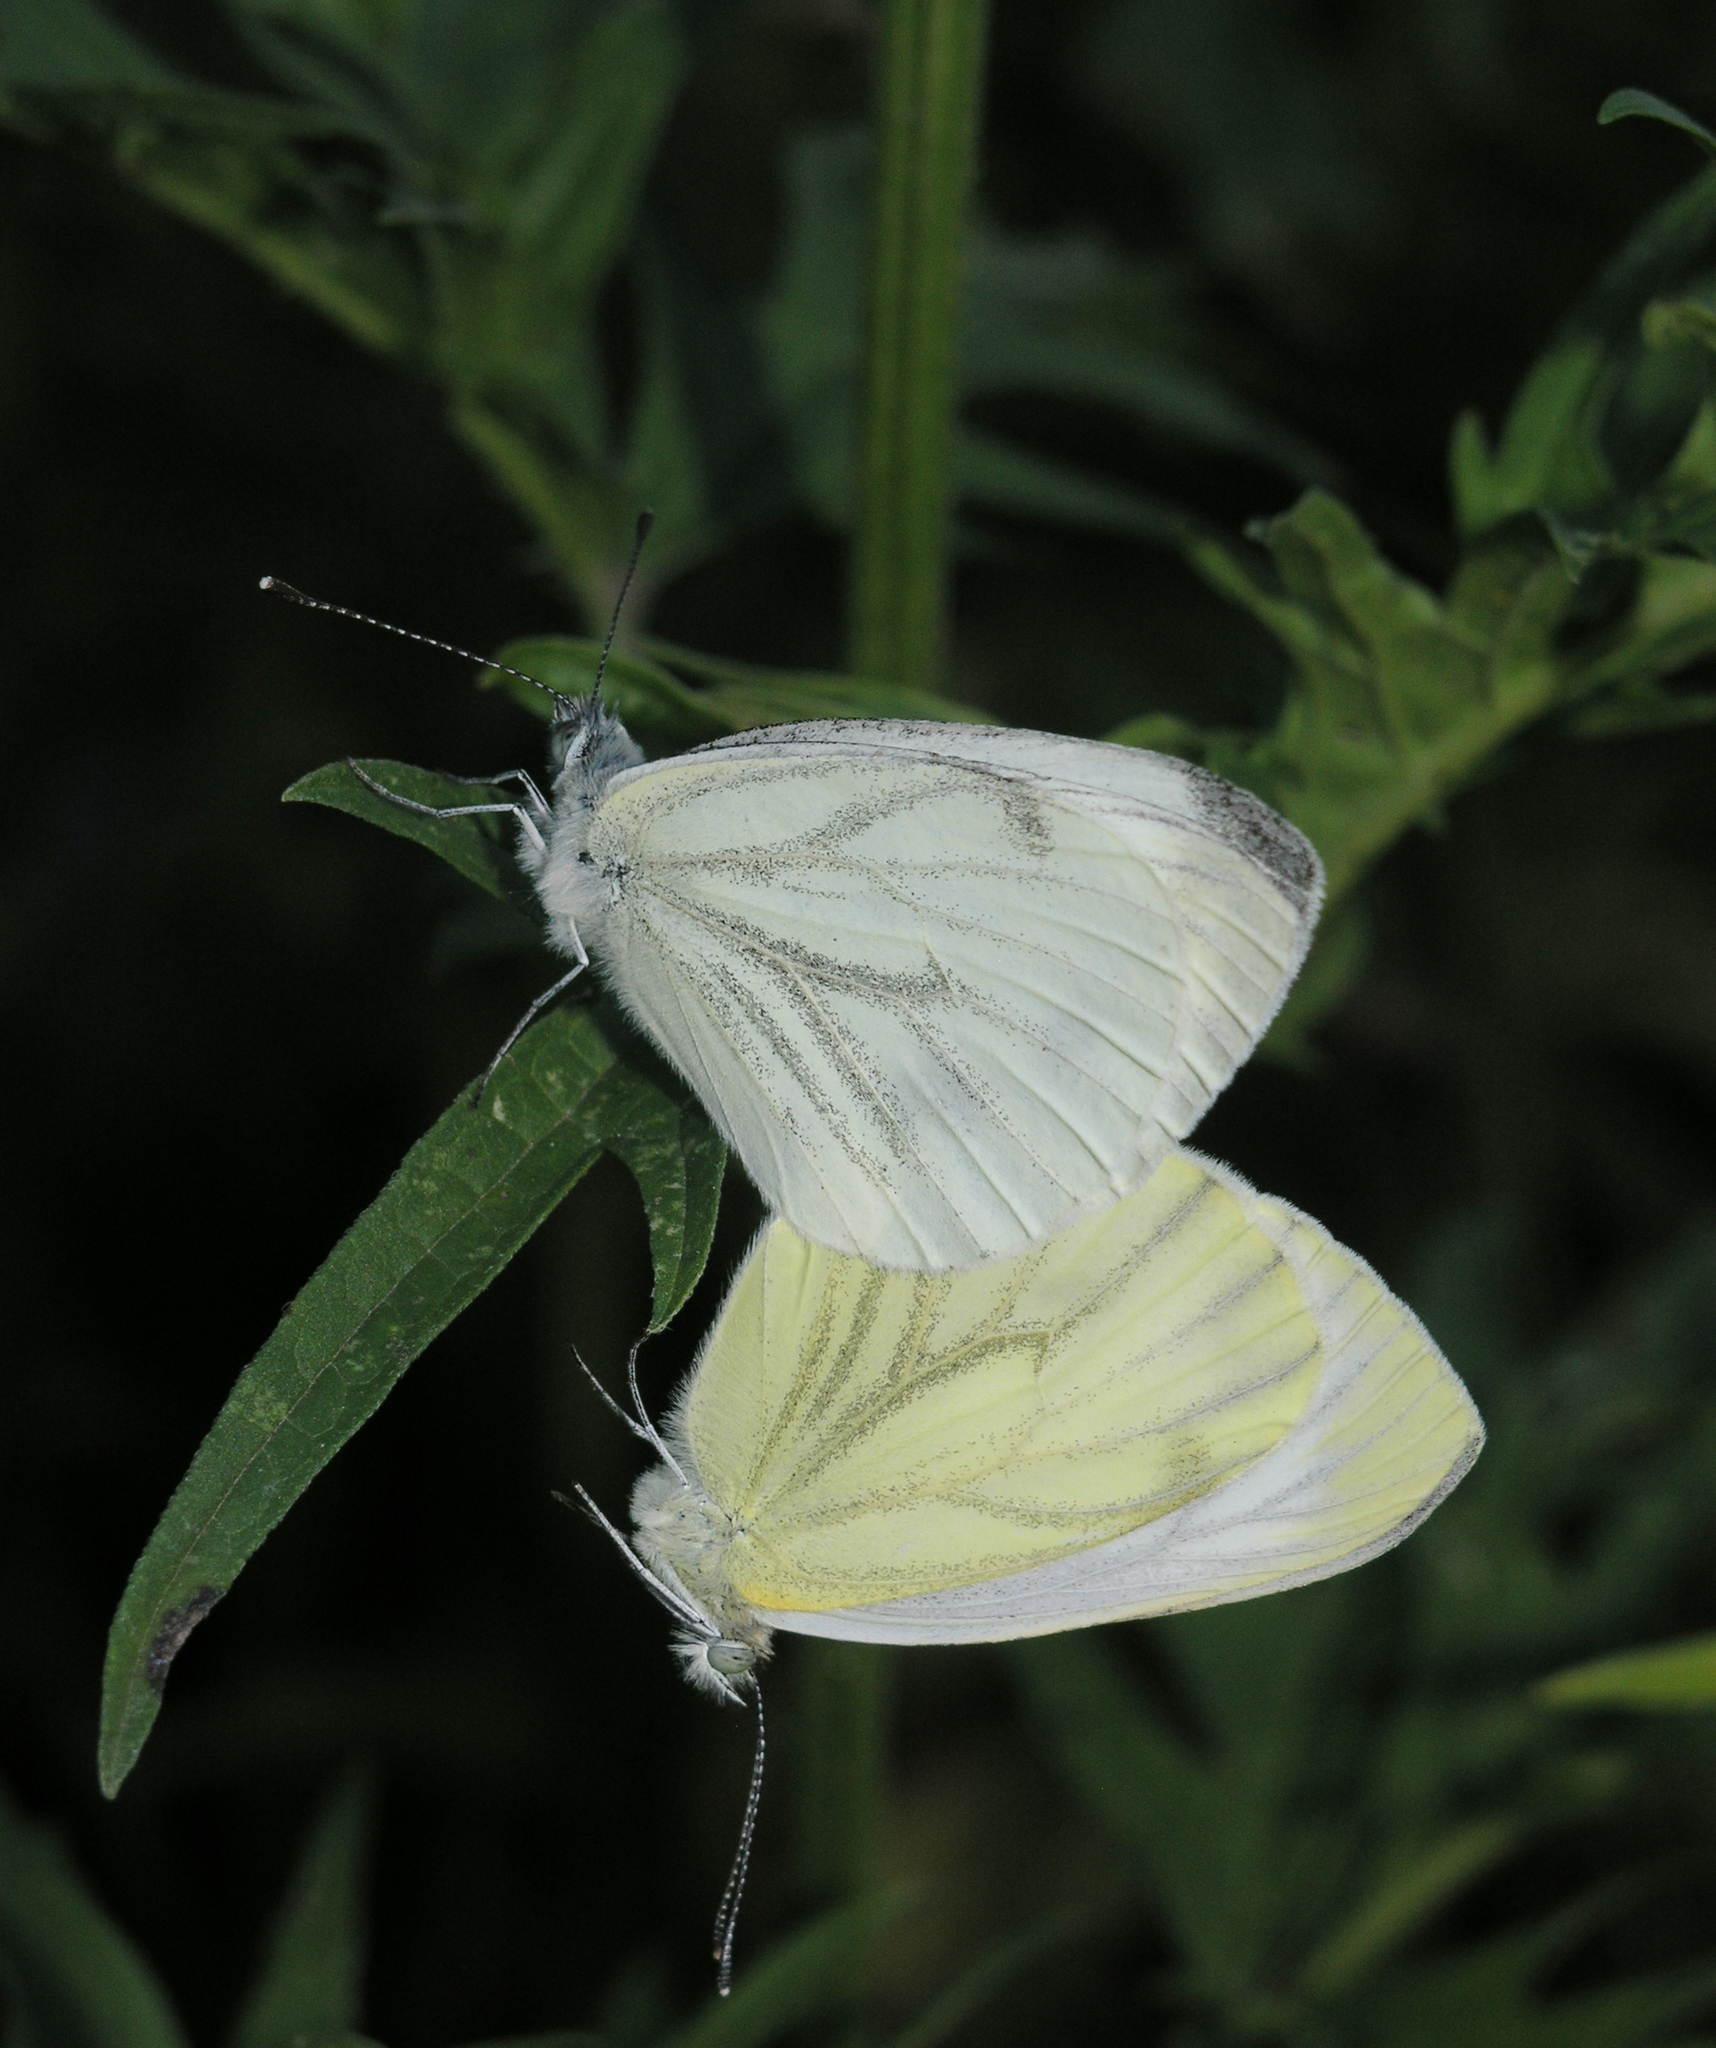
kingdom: Animalia
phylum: Arthropoda
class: Insecta
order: Lepidoptera
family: Pieridae
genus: Pieris
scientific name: Pieris napi
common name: Green-veined white
